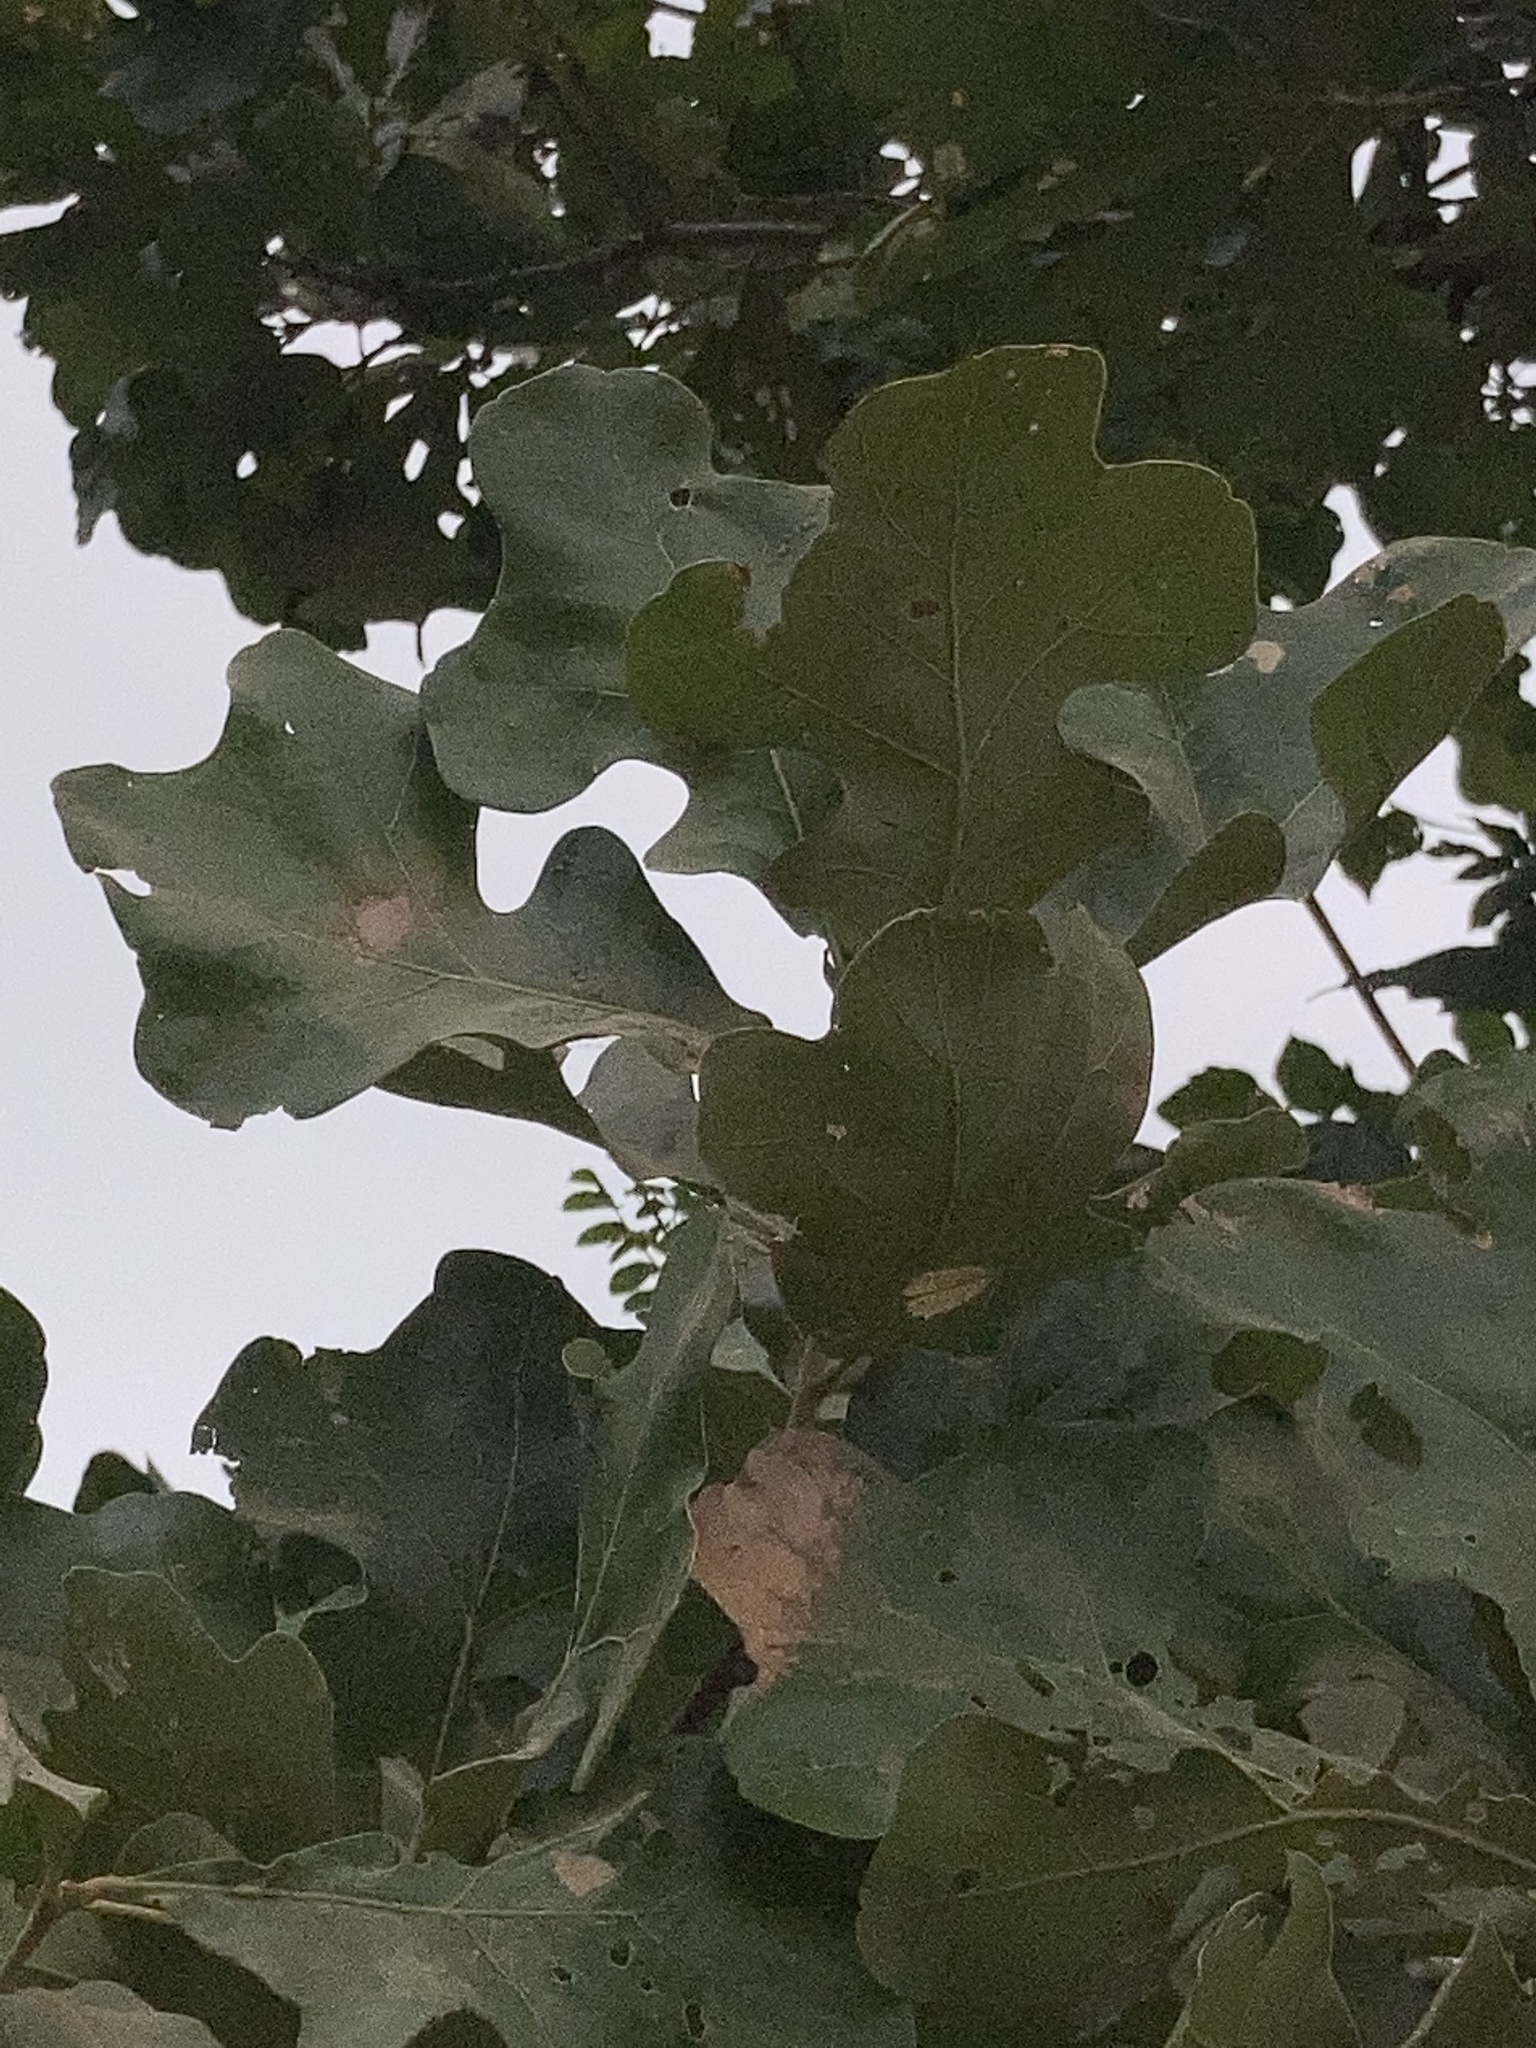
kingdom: Plantae
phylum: Tracheophyta
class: Magnoliopsida
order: Fagales
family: Fagaceae
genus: Quercus
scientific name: Quercus stellata
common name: Post oak
